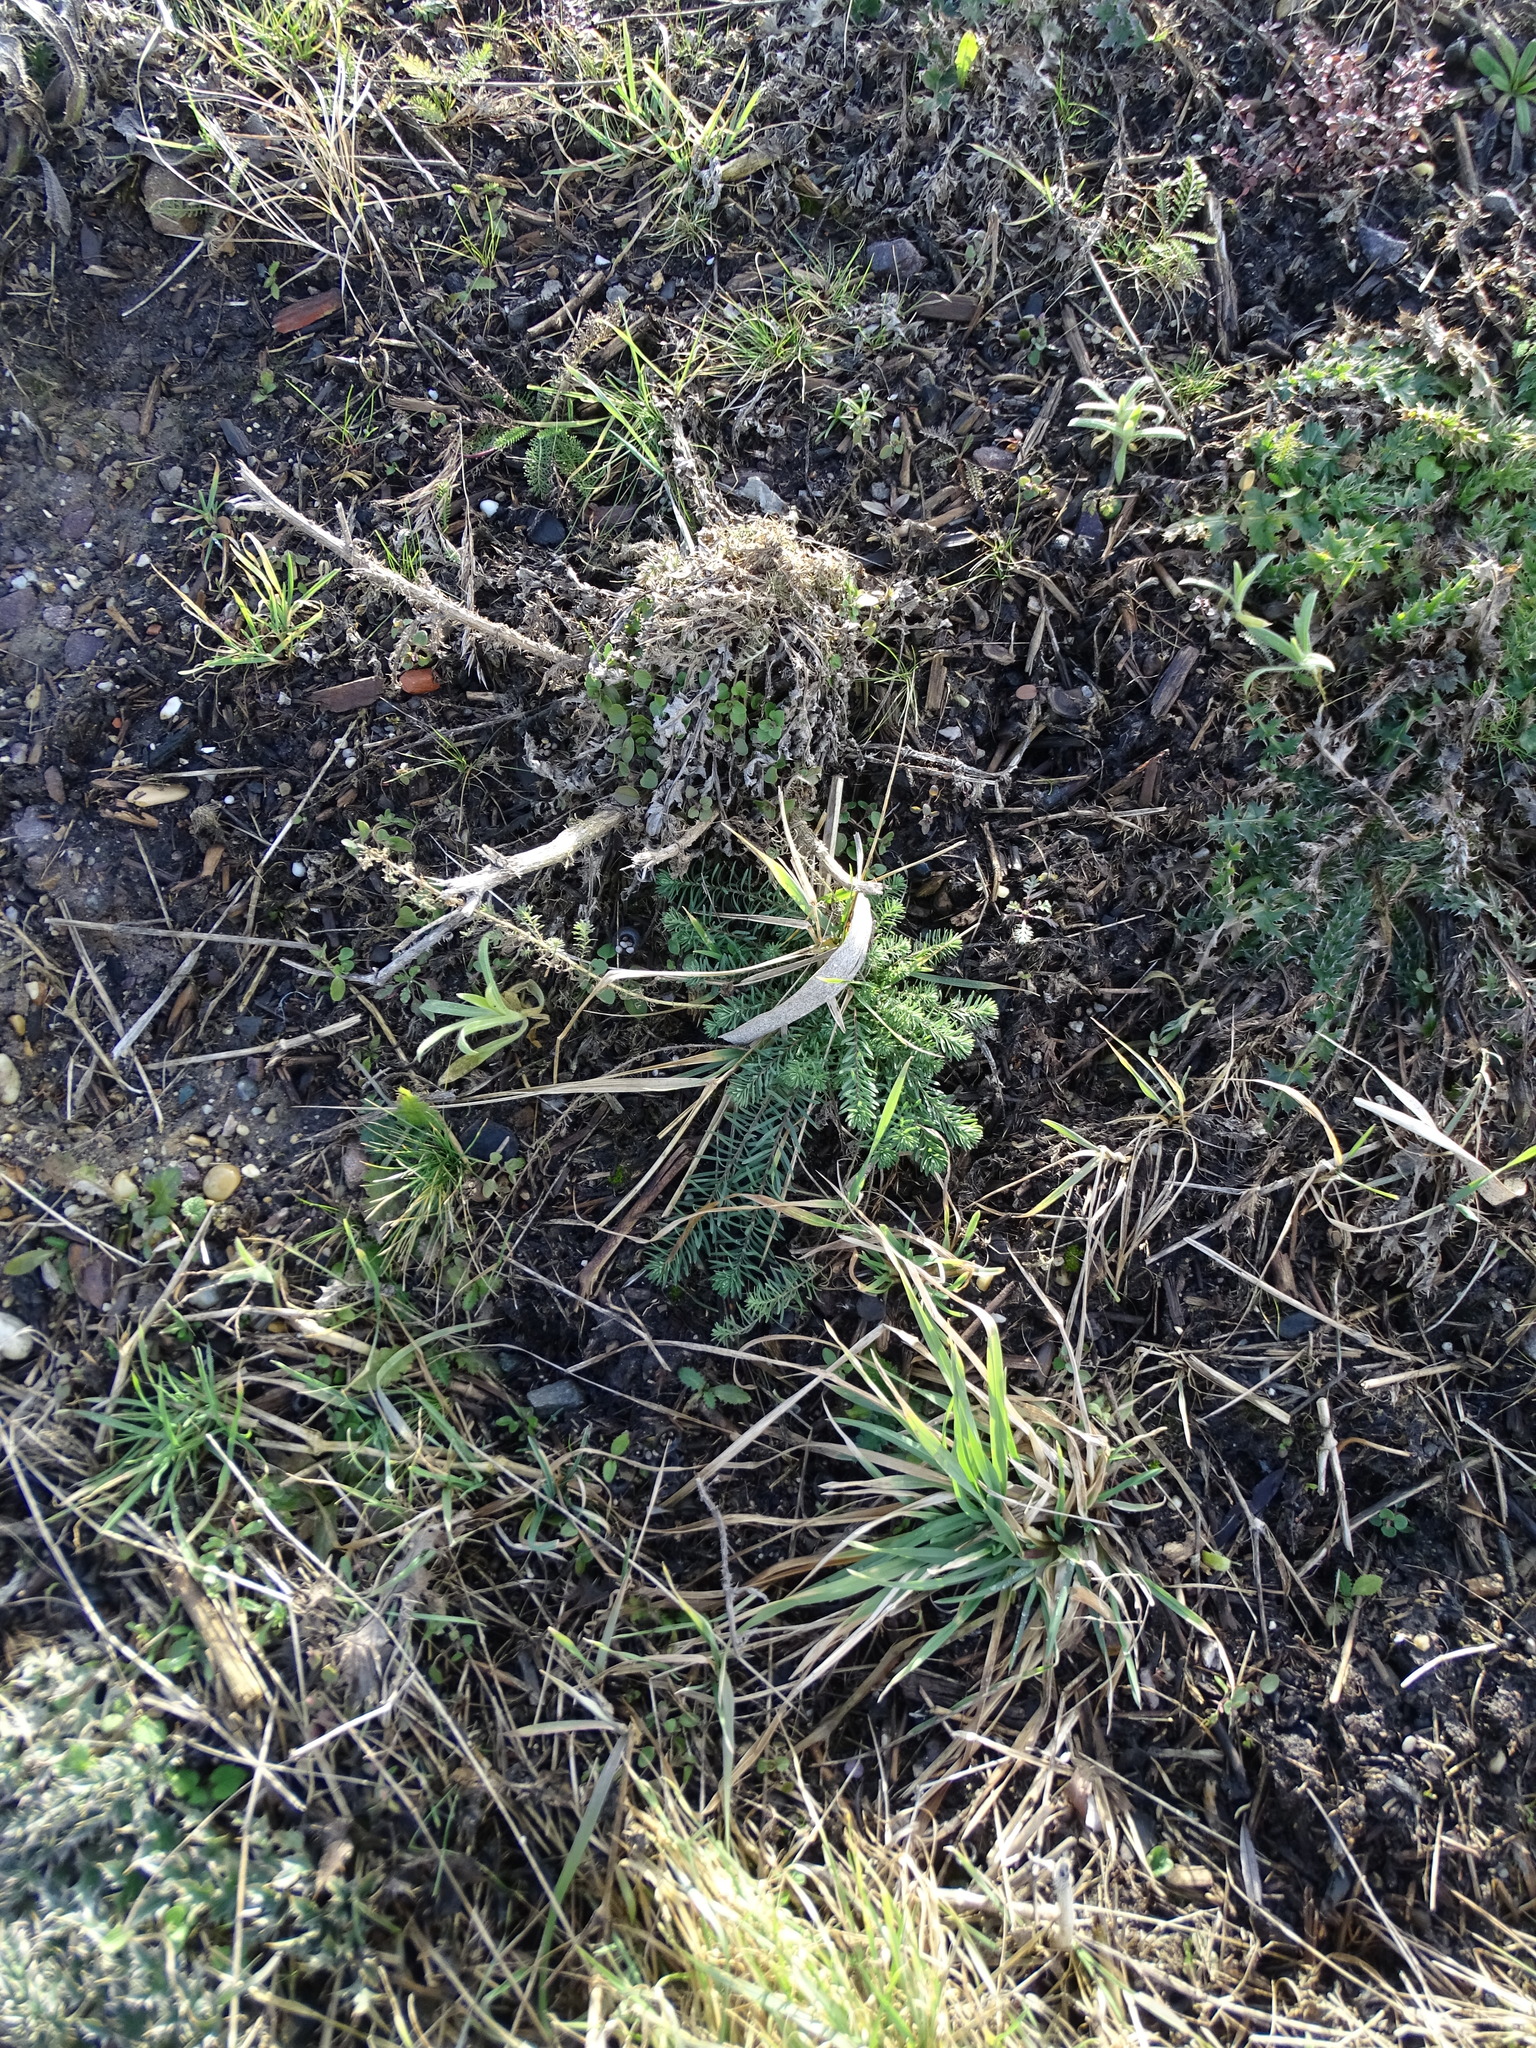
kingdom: Plantae
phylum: Tracheophyta
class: Magnoliopsida
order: Malpighiales
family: Euphorbiaceae
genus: Euphorbia
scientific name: Euphorbia cyparissias
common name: Cypress spurge
